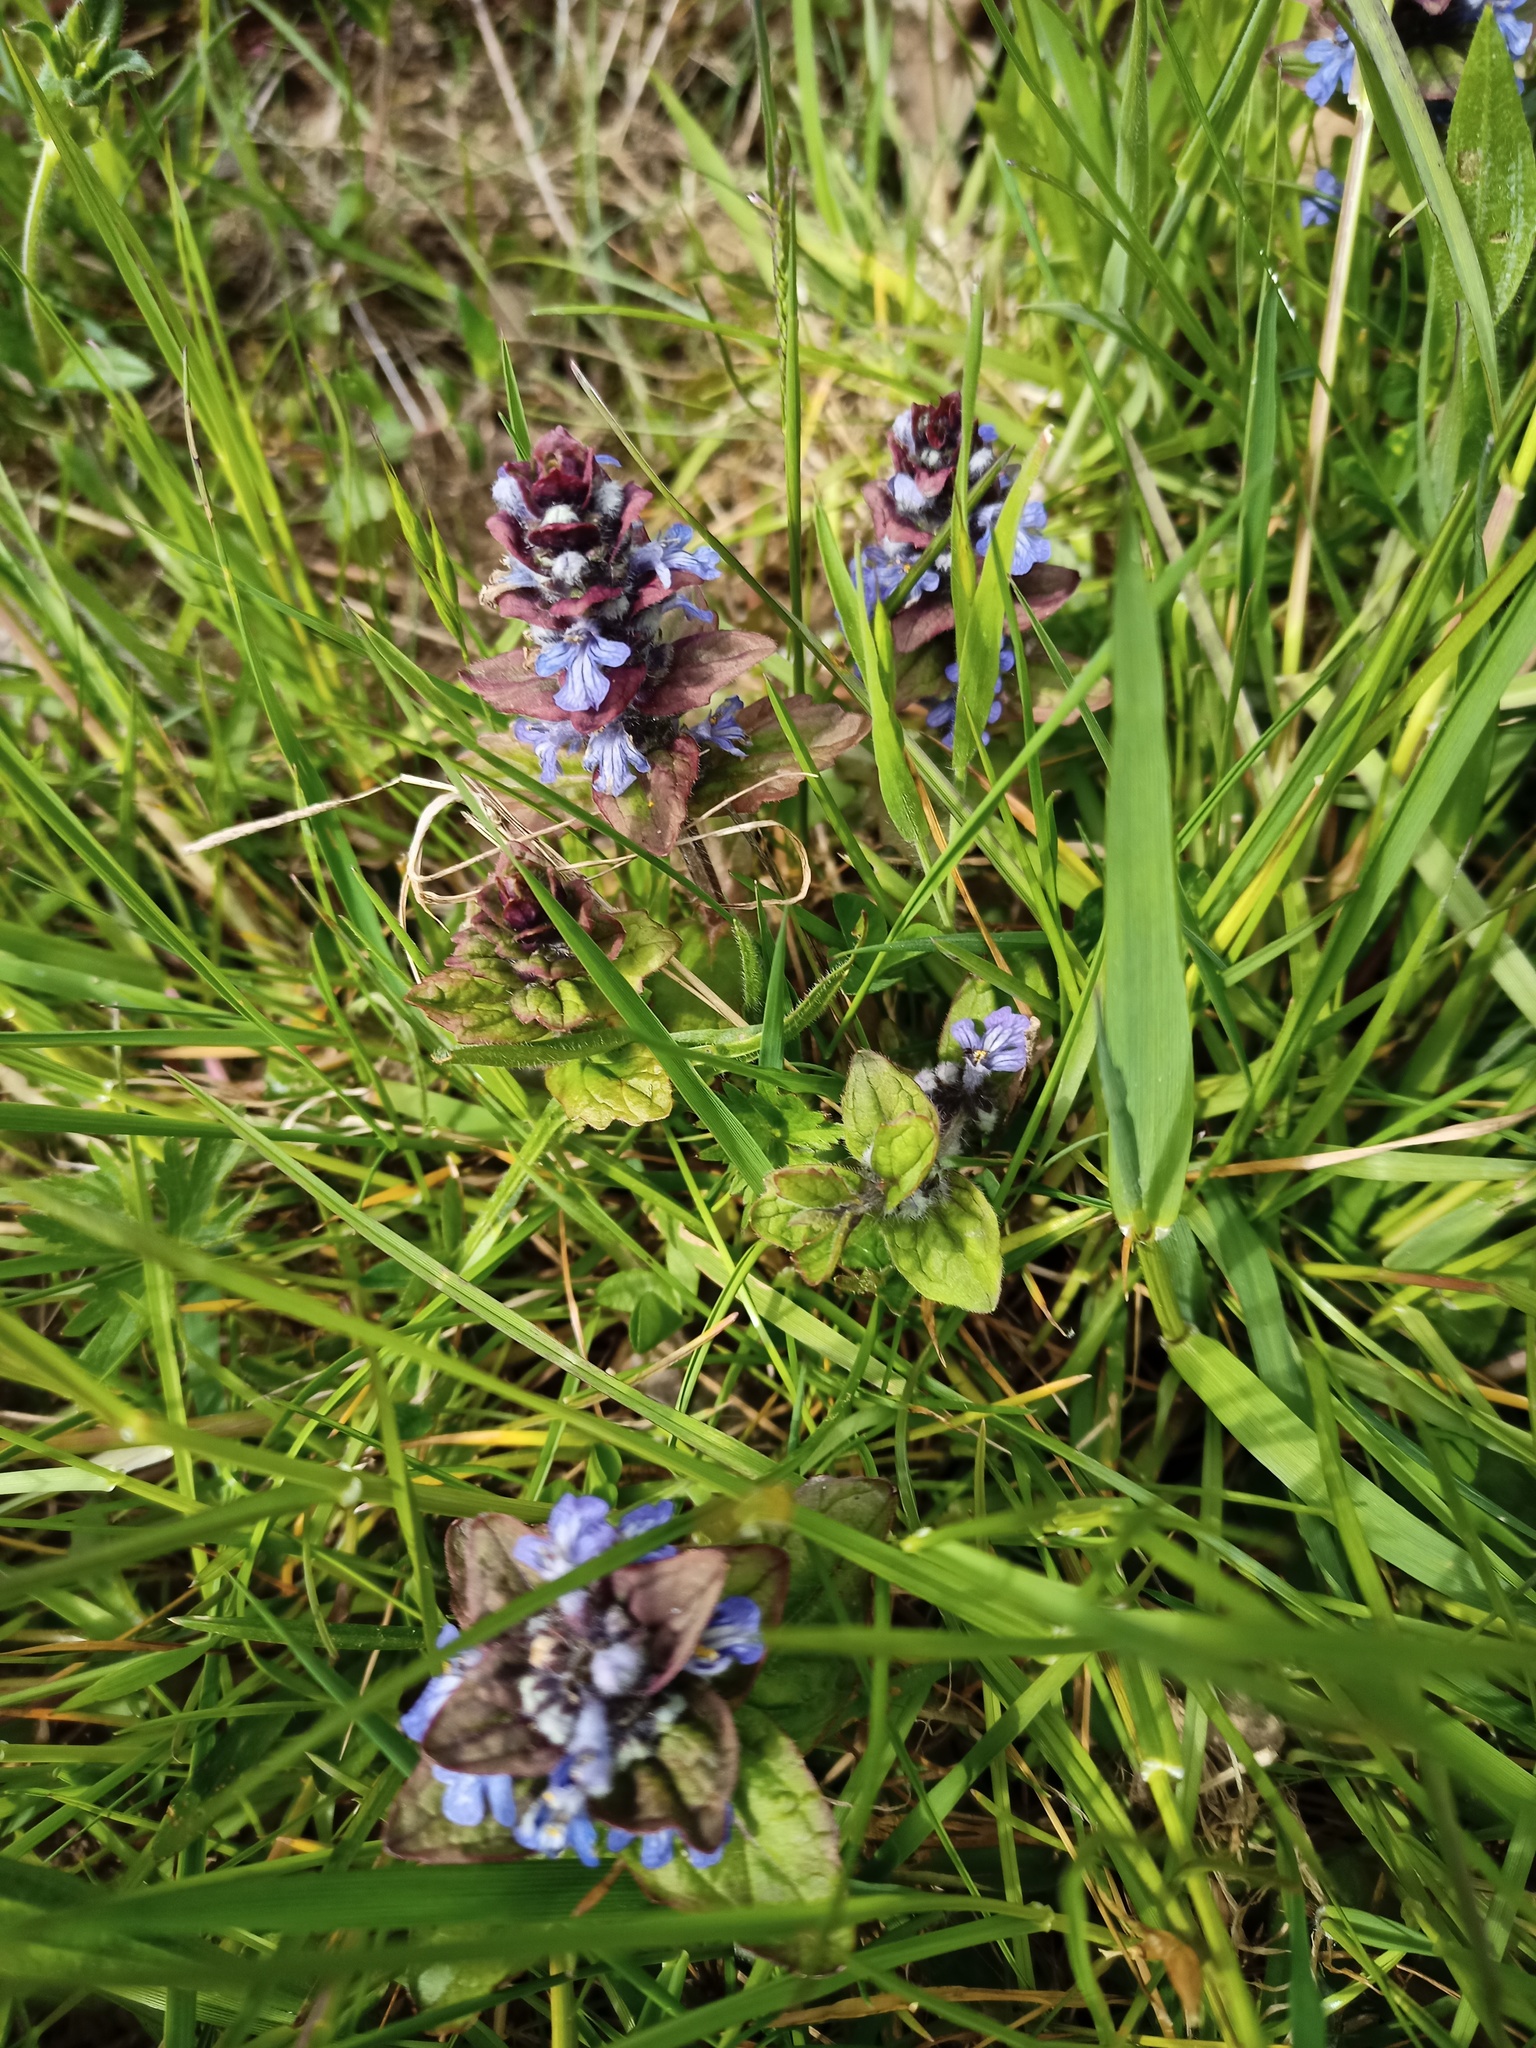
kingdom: Plantae
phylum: Tracheophyta
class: Magnoliopsida
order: Lamiales
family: Lamiaceae
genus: Ajuga
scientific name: Ajuga reptans
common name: Bugle
